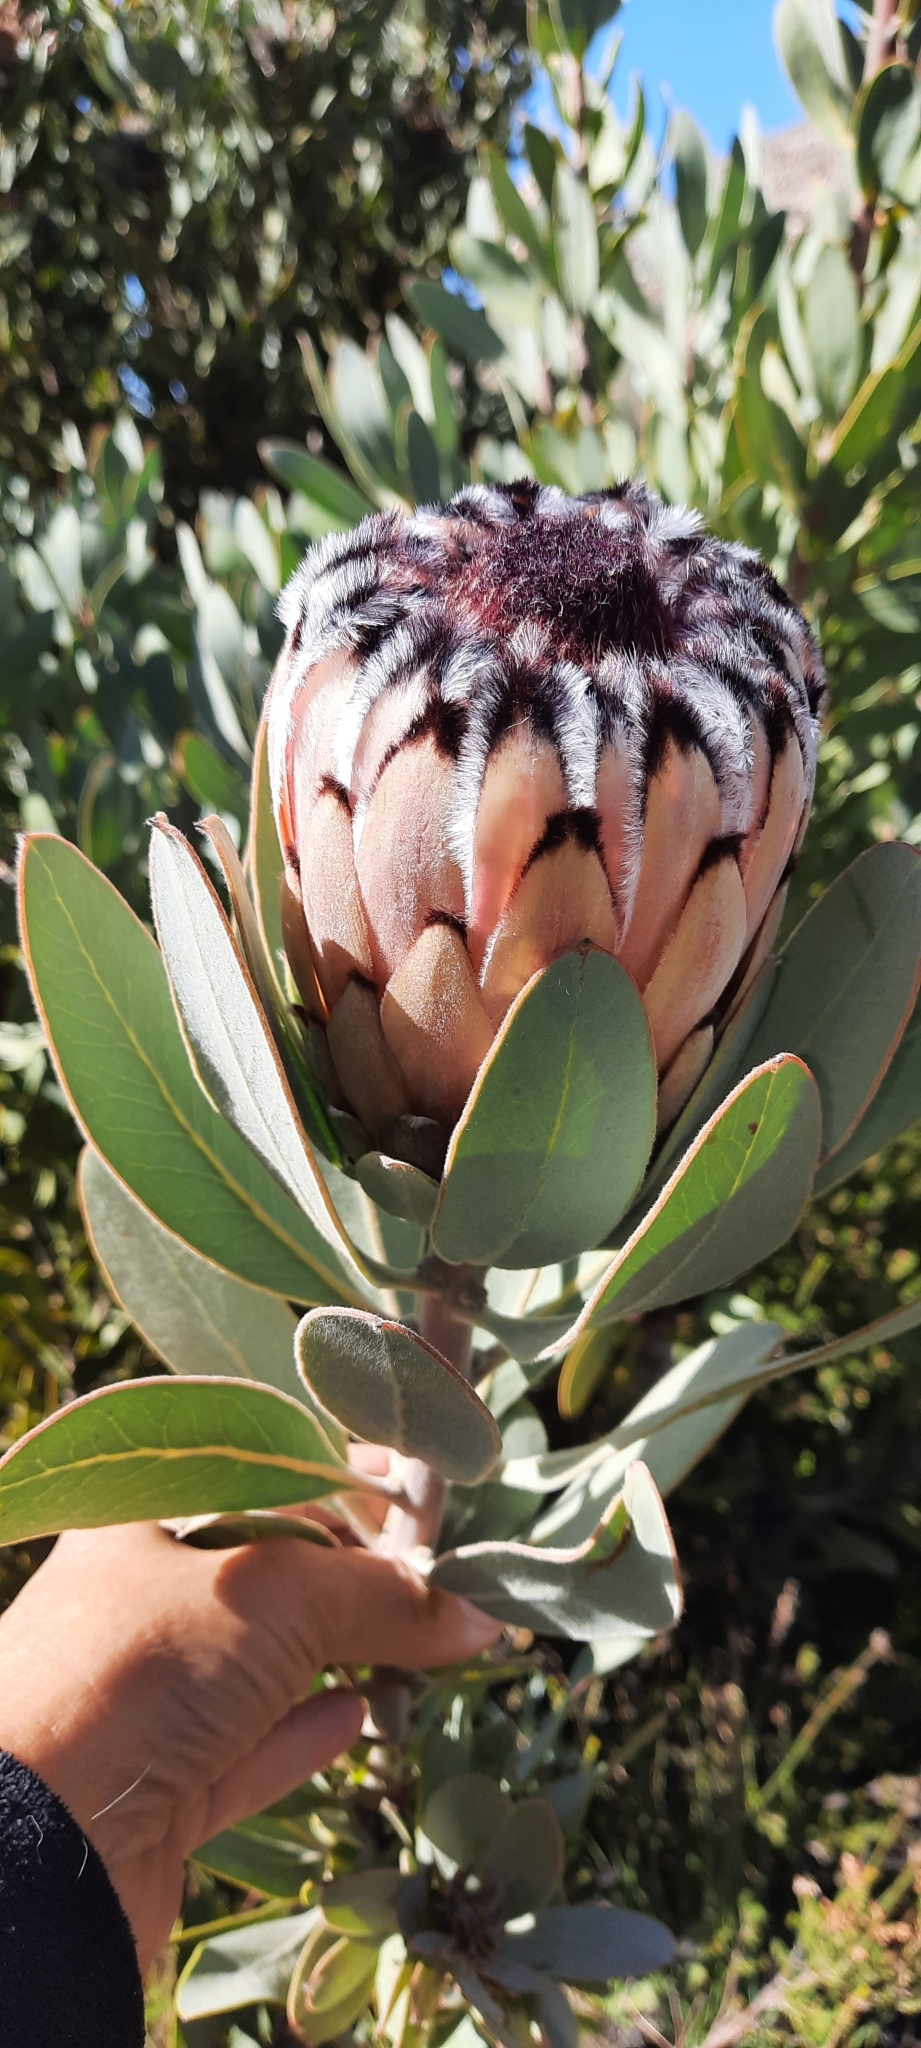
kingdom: Plantae
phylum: Tracheophyta
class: Magnoliopsida
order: Proteales
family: Proteaceae
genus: Protea
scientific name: Protea laurifolia
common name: Grey-leaf sugarbsh
